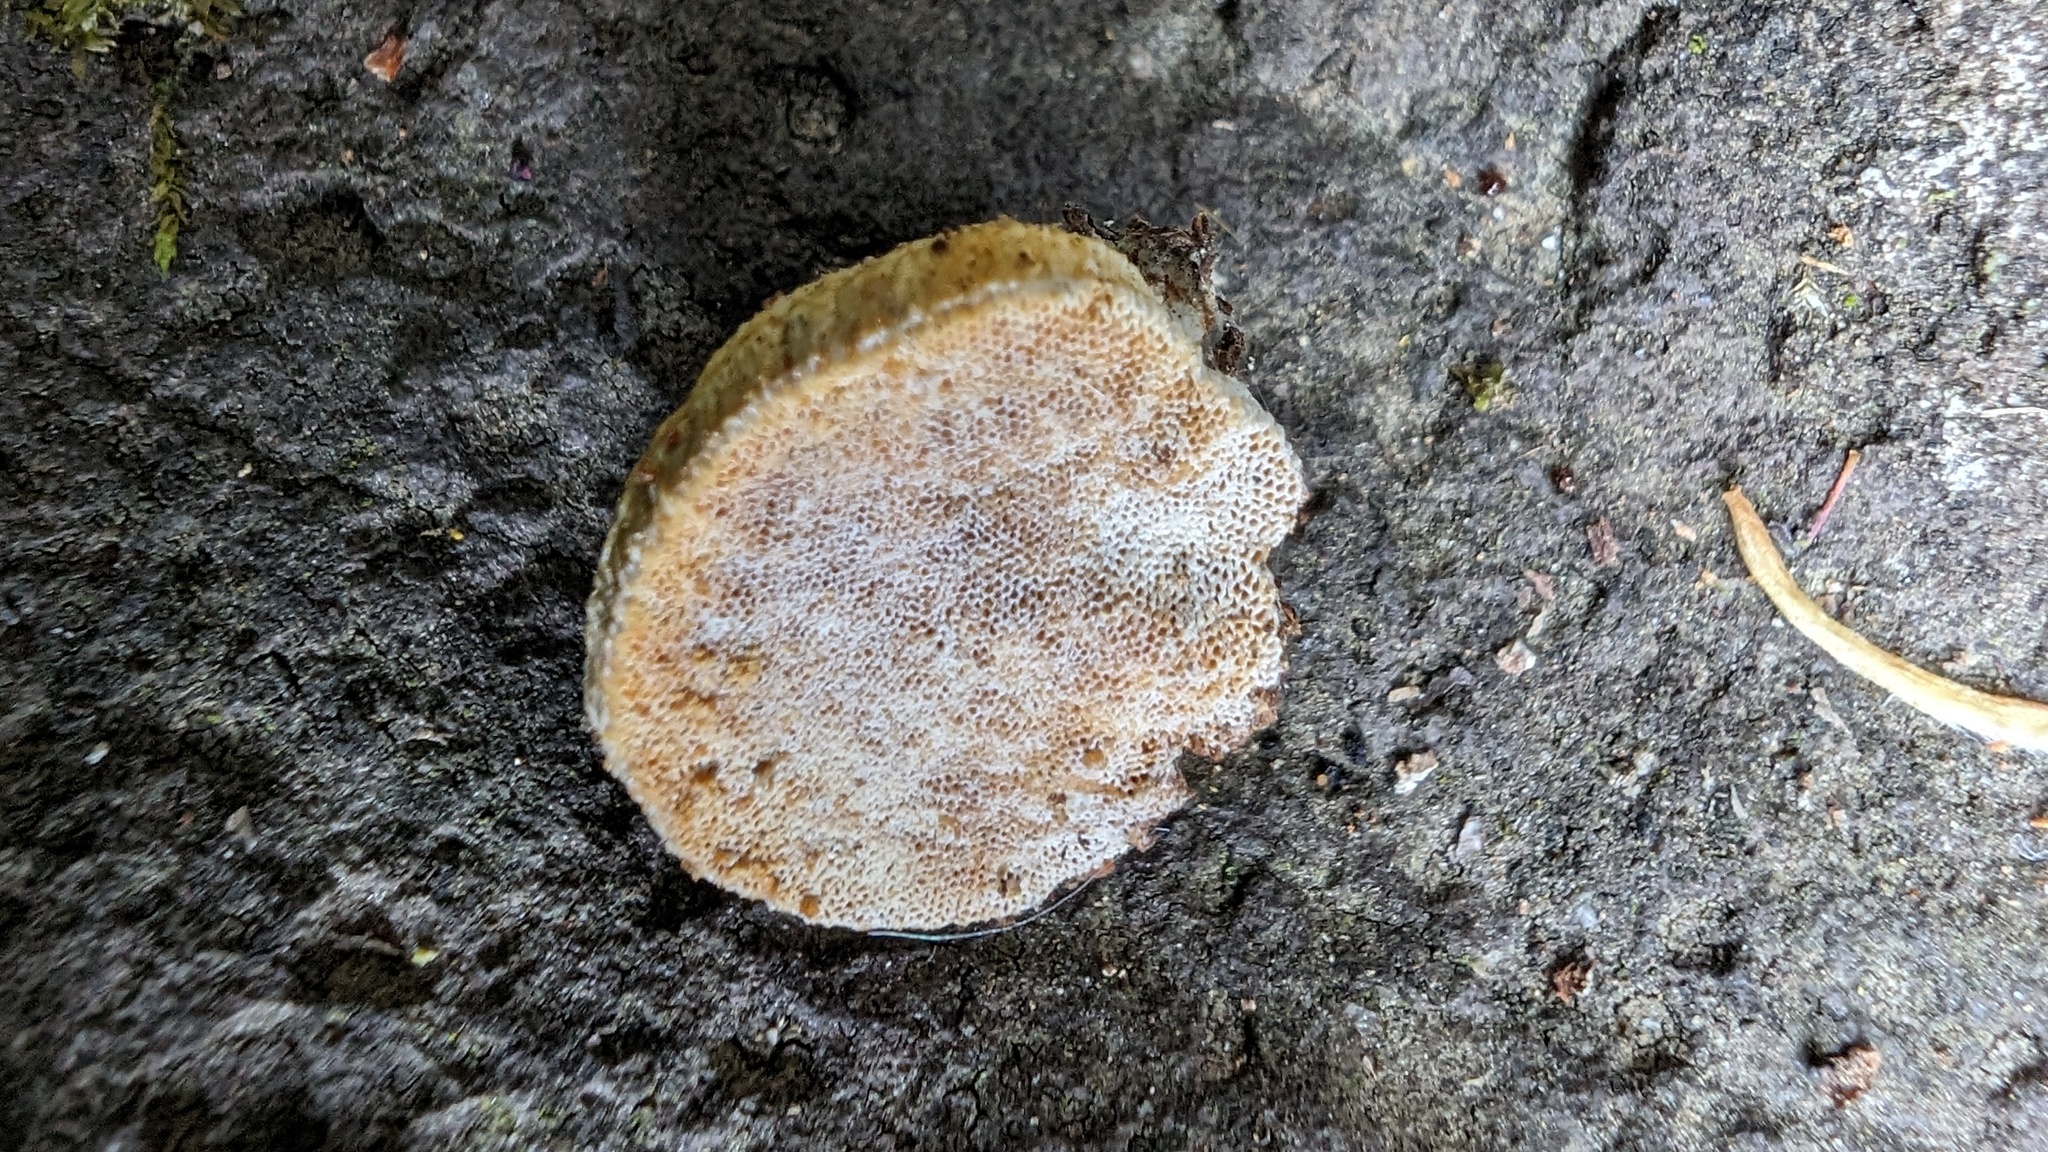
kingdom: Fungi
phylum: Basidiomycota
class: Agaricomycetes
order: Polyporales
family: Polyporaceae
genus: Truncospora
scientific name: Truncospora ochroleuca
